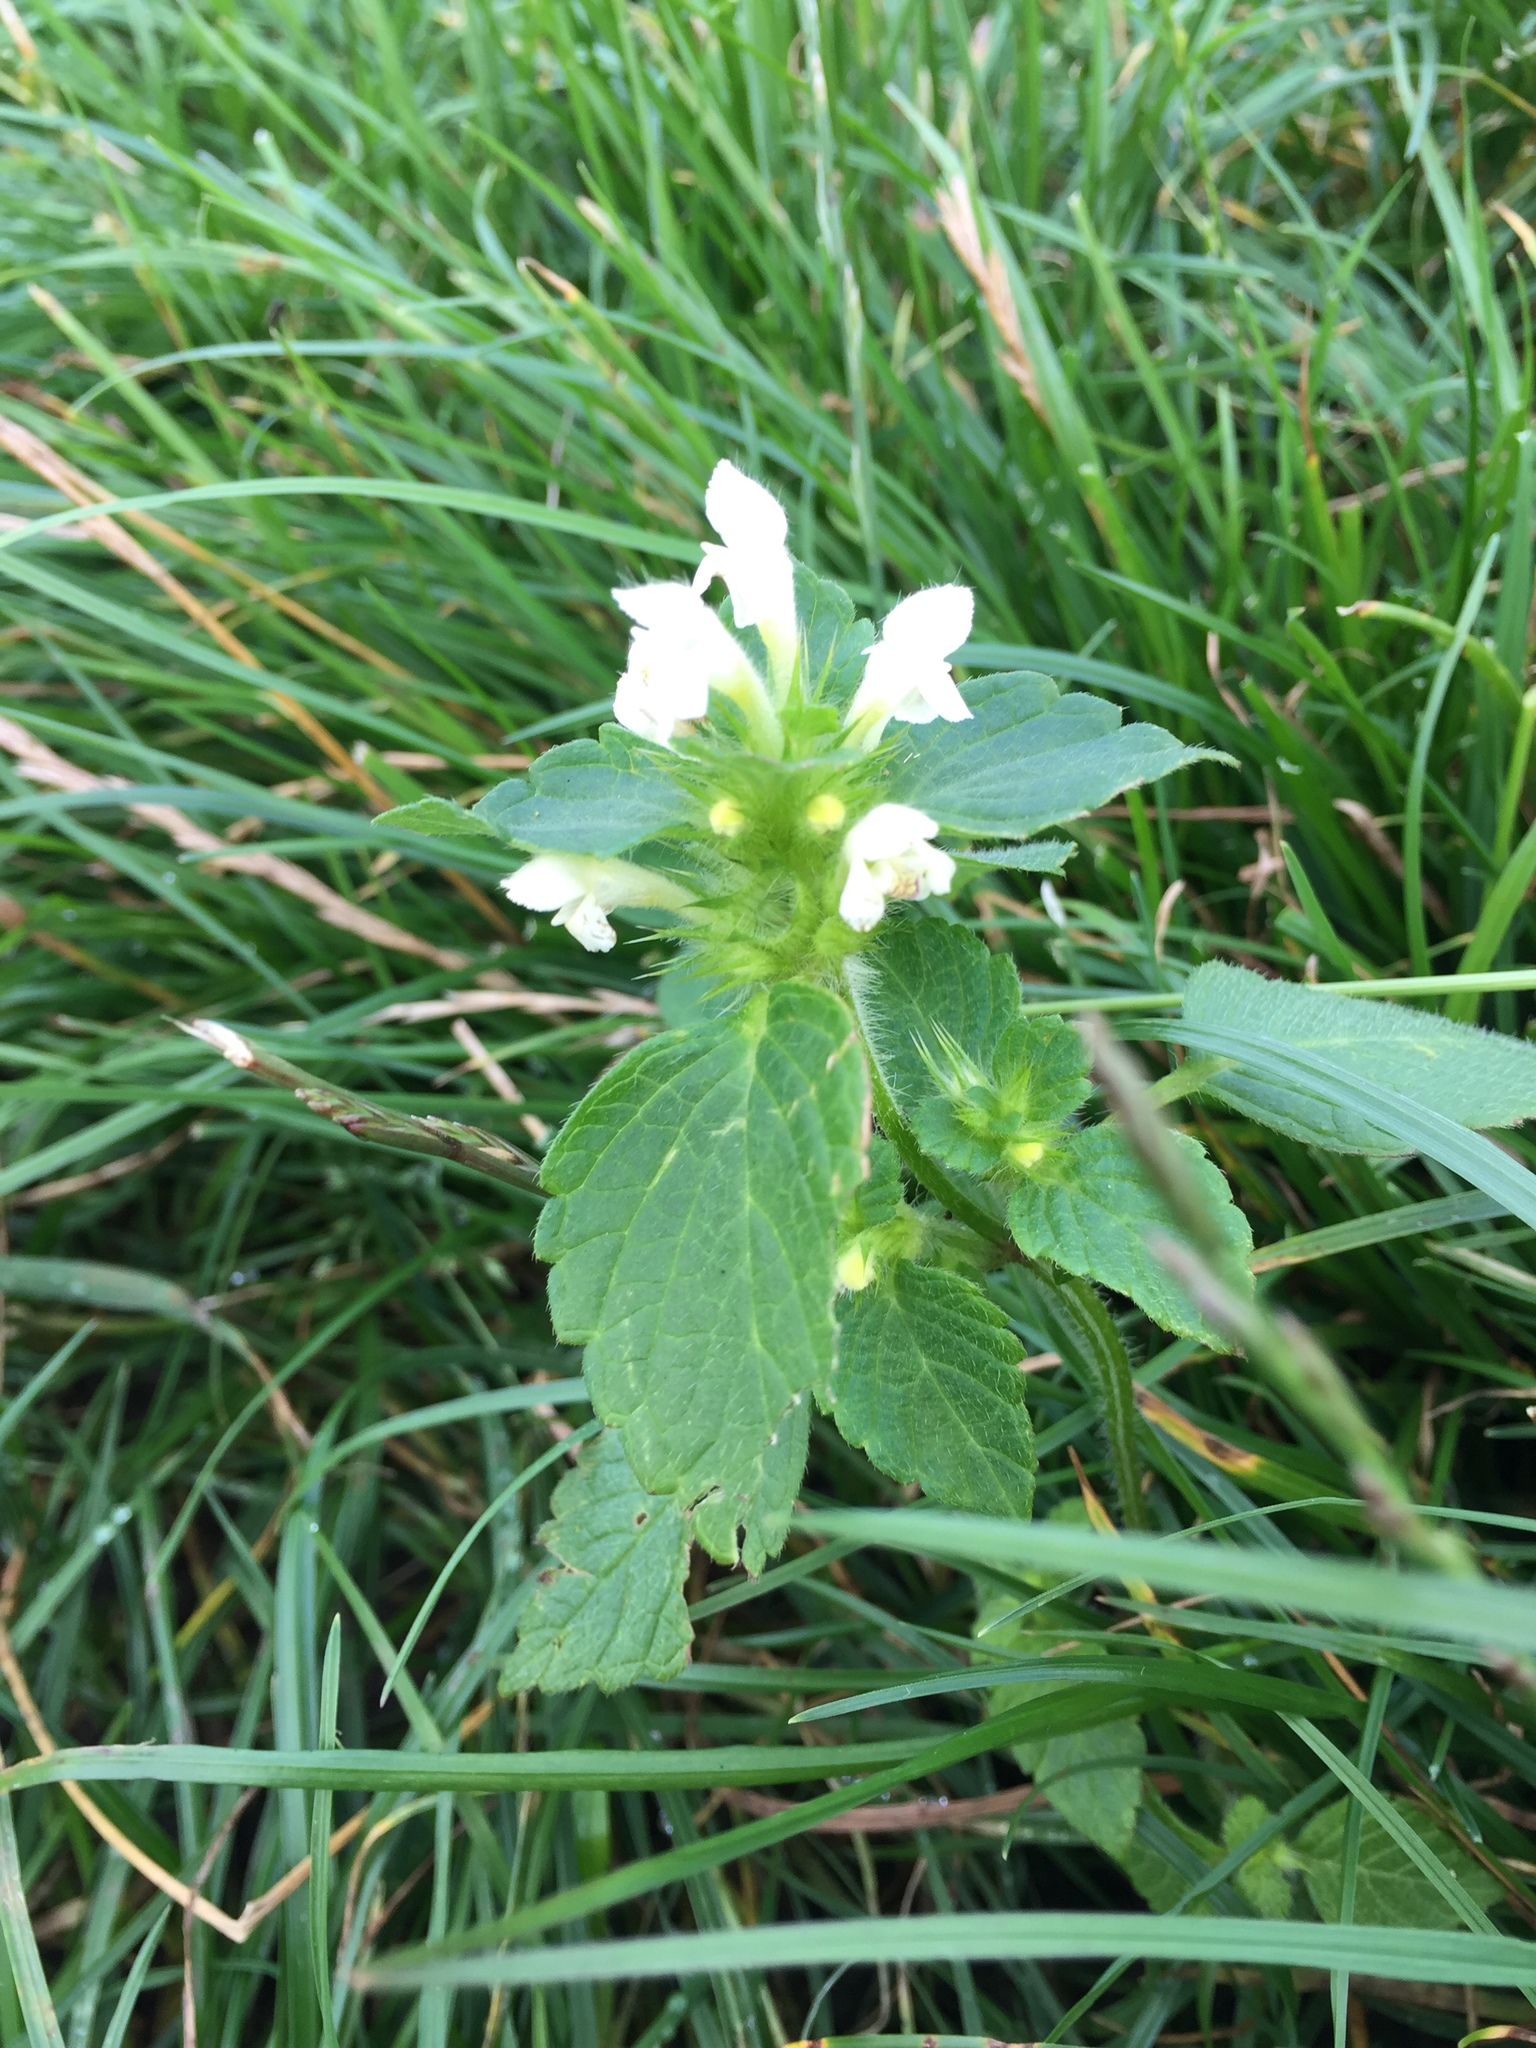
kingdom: Plantae
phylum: Tracheophyta
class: Magnoliopsida
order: Lamiales
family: Lamiaceae
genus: Galeopsis
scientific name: Galeopsis tetrahit
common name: Common hemp-nettle
